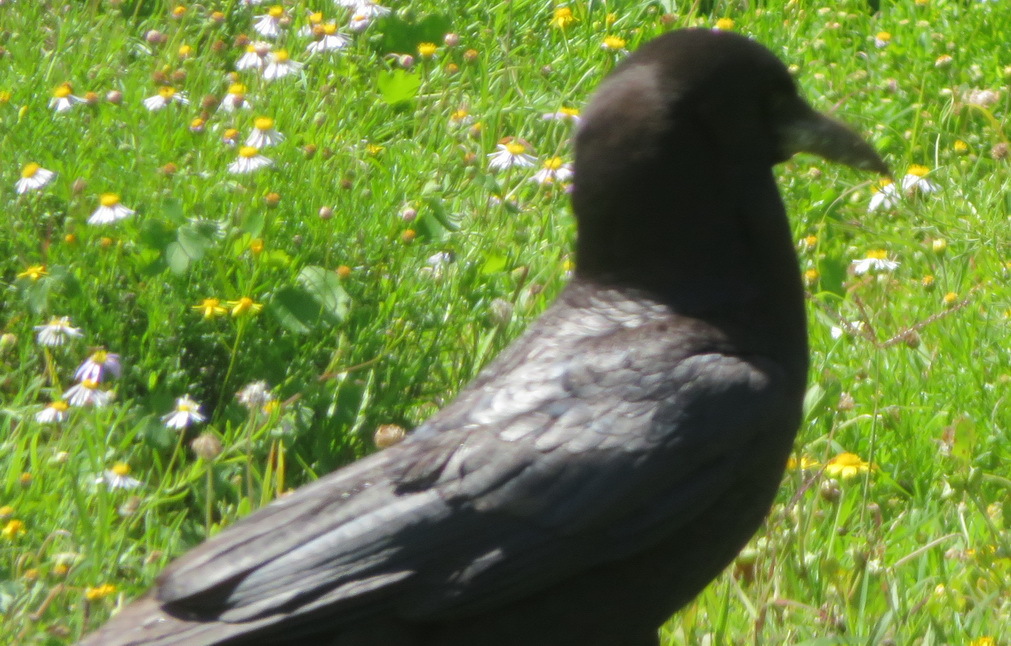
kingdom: Animalia
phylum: Chordata
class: Aves
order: Passeriformes
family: Corvidae
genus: Corvus
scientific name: Corvus capensis
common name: Cape crow
